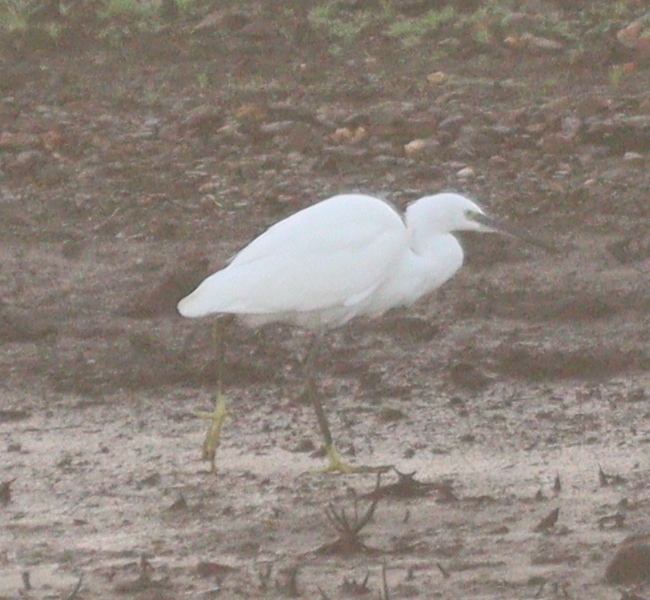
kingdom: Animalia
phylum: Chordata
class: Aves
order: Pelecaniformes
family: Ardeidae
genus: Egretta
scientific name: Egretta garzetta
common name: Little egret
